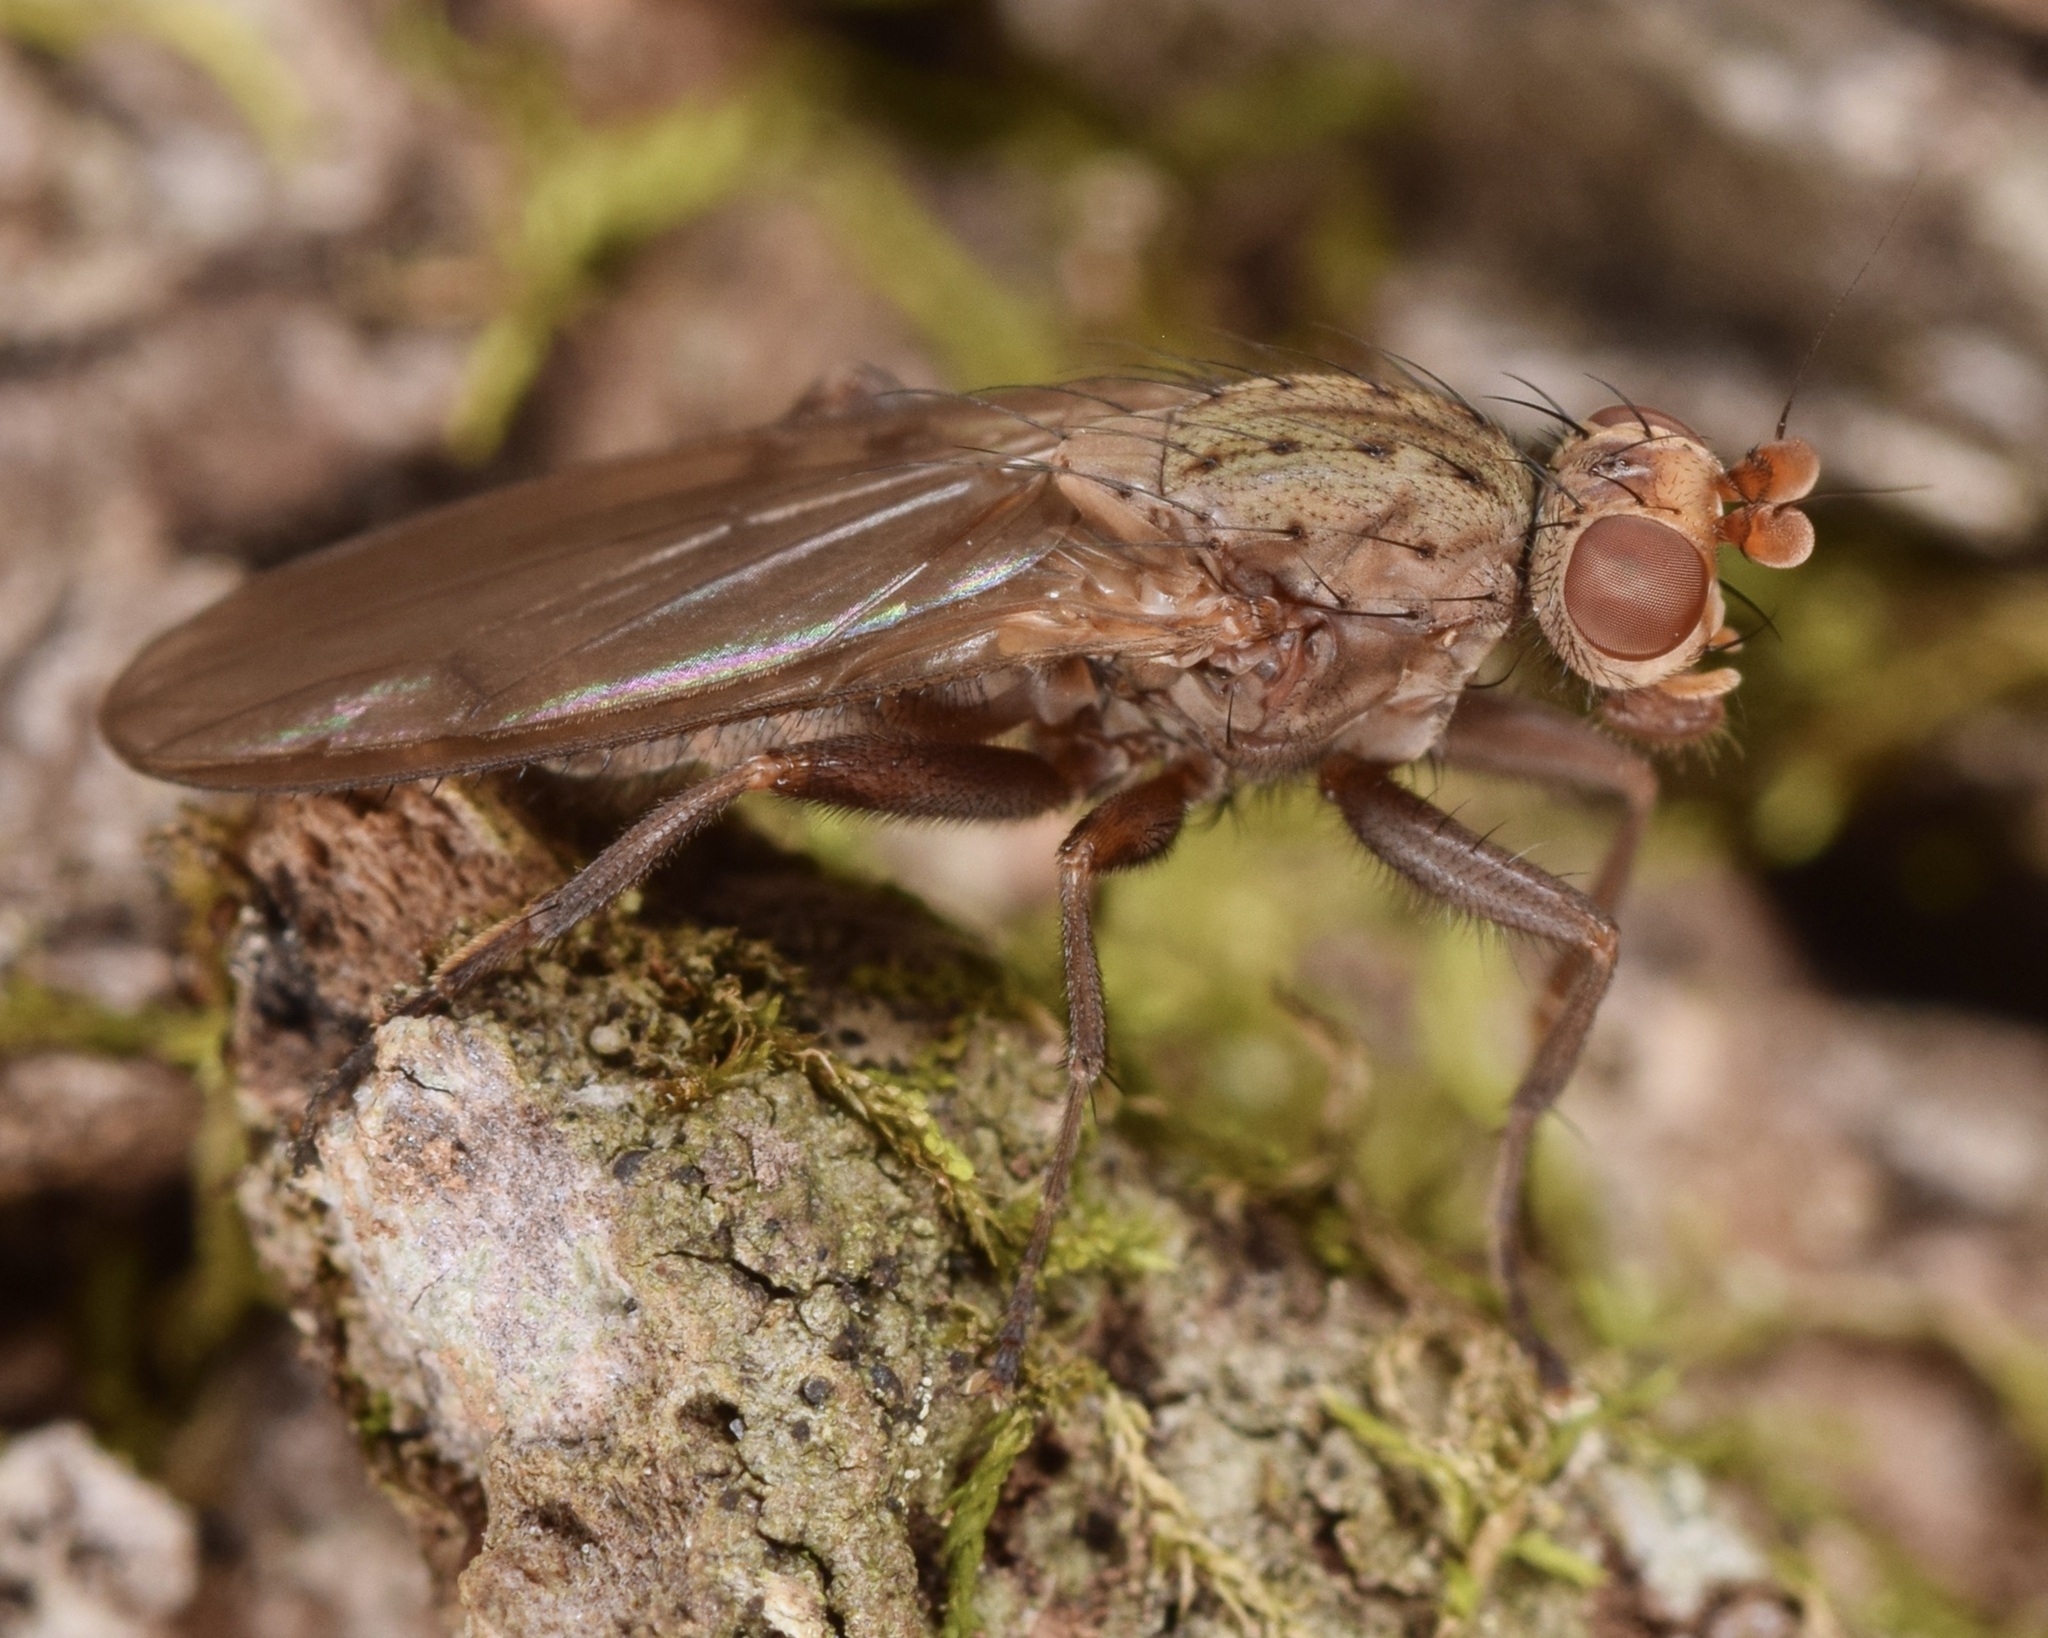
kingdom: Animalia
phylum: Arthropoda
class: Insecta
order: Diptera
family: Heleomyzidae
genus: Amoebaleria
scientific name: Amoebaleria defessa
